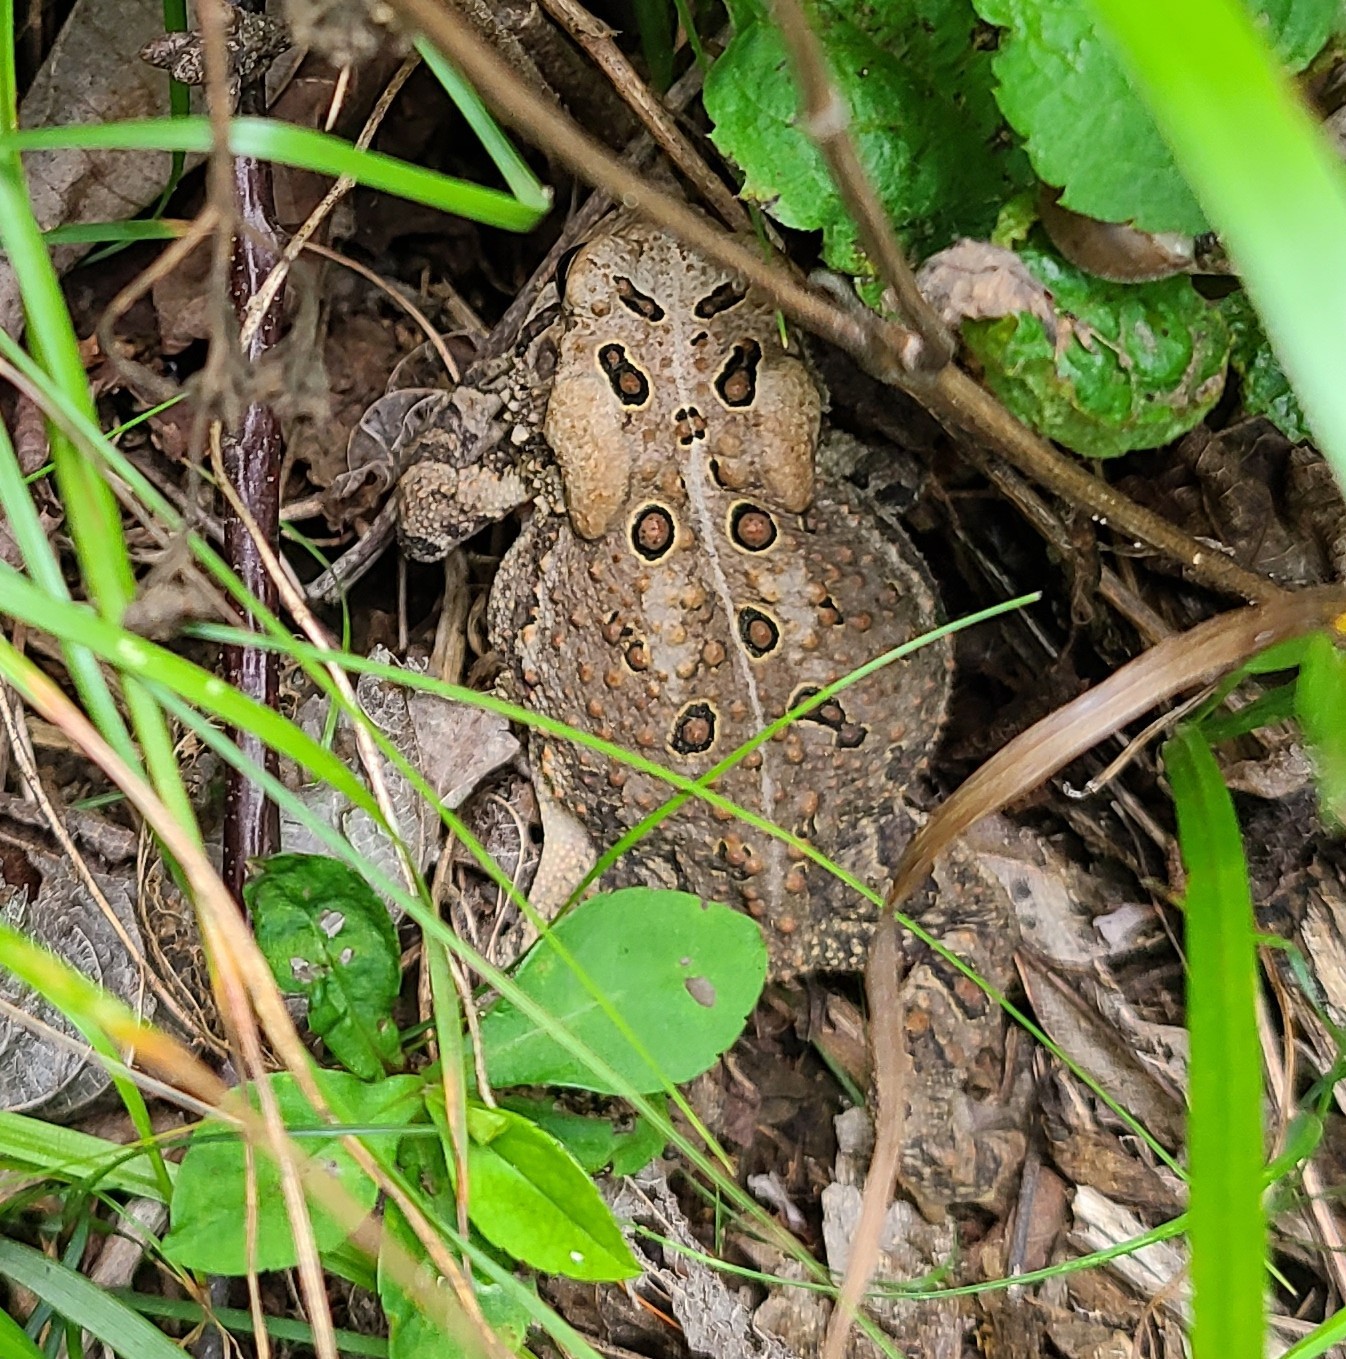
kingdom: Animalia
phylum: Chordata
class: Amphibia
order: Anura
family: Bufonidae
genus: Anaxyrus
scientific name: Anaxyrus americanus
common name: American toad
